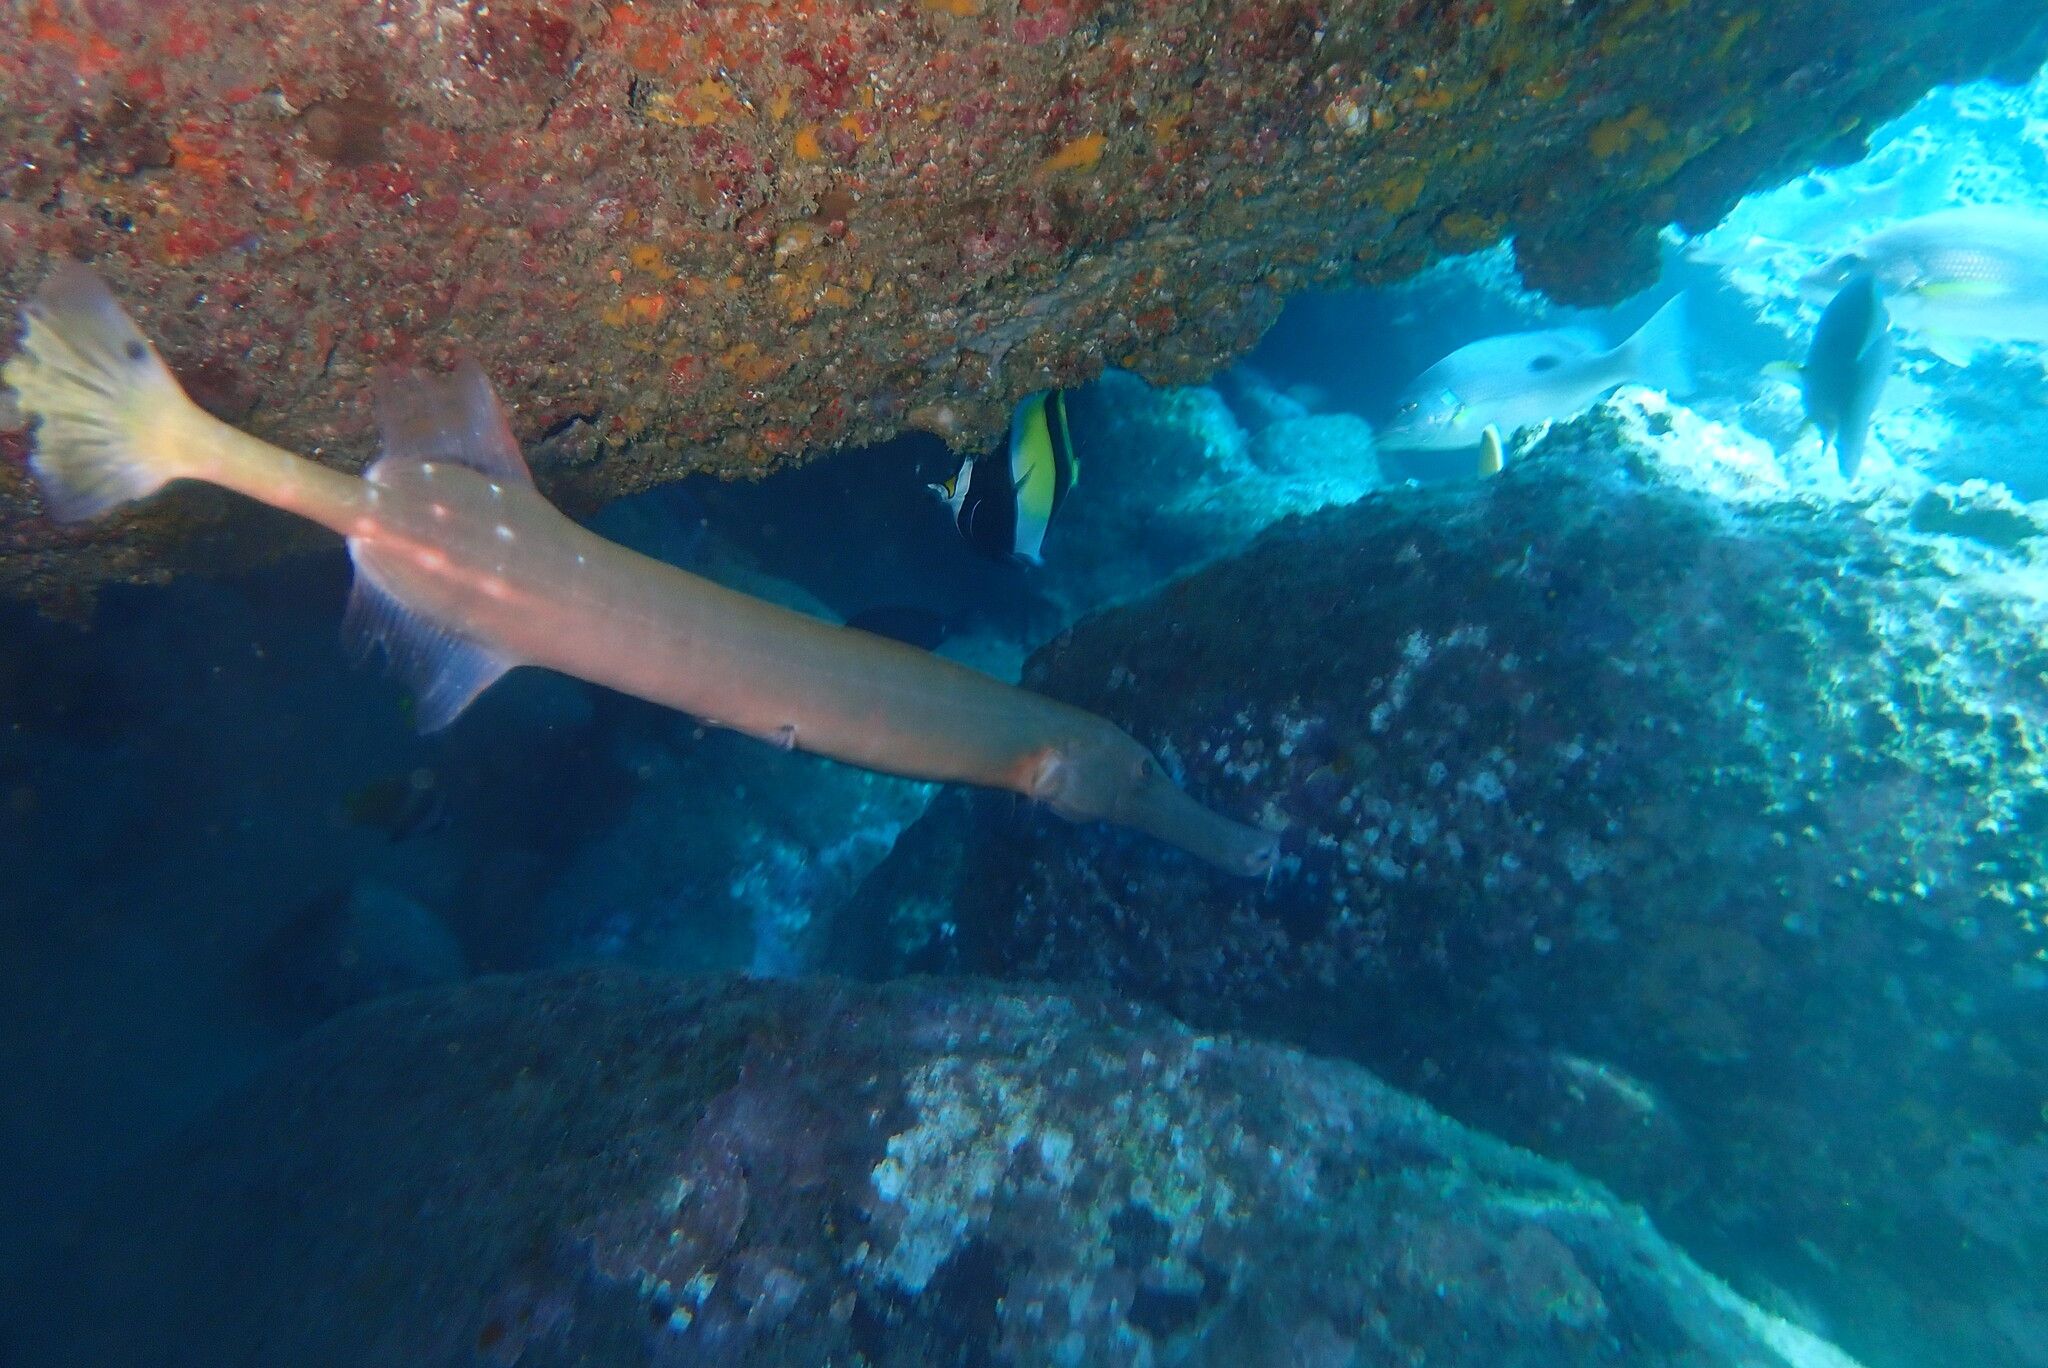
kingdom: Animalia
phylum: Chordata
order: Syngnathiformes
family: Aulostomidae
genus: Aulostomus
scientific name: Aulostomus chinensis
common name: Chinese trumpetfish
